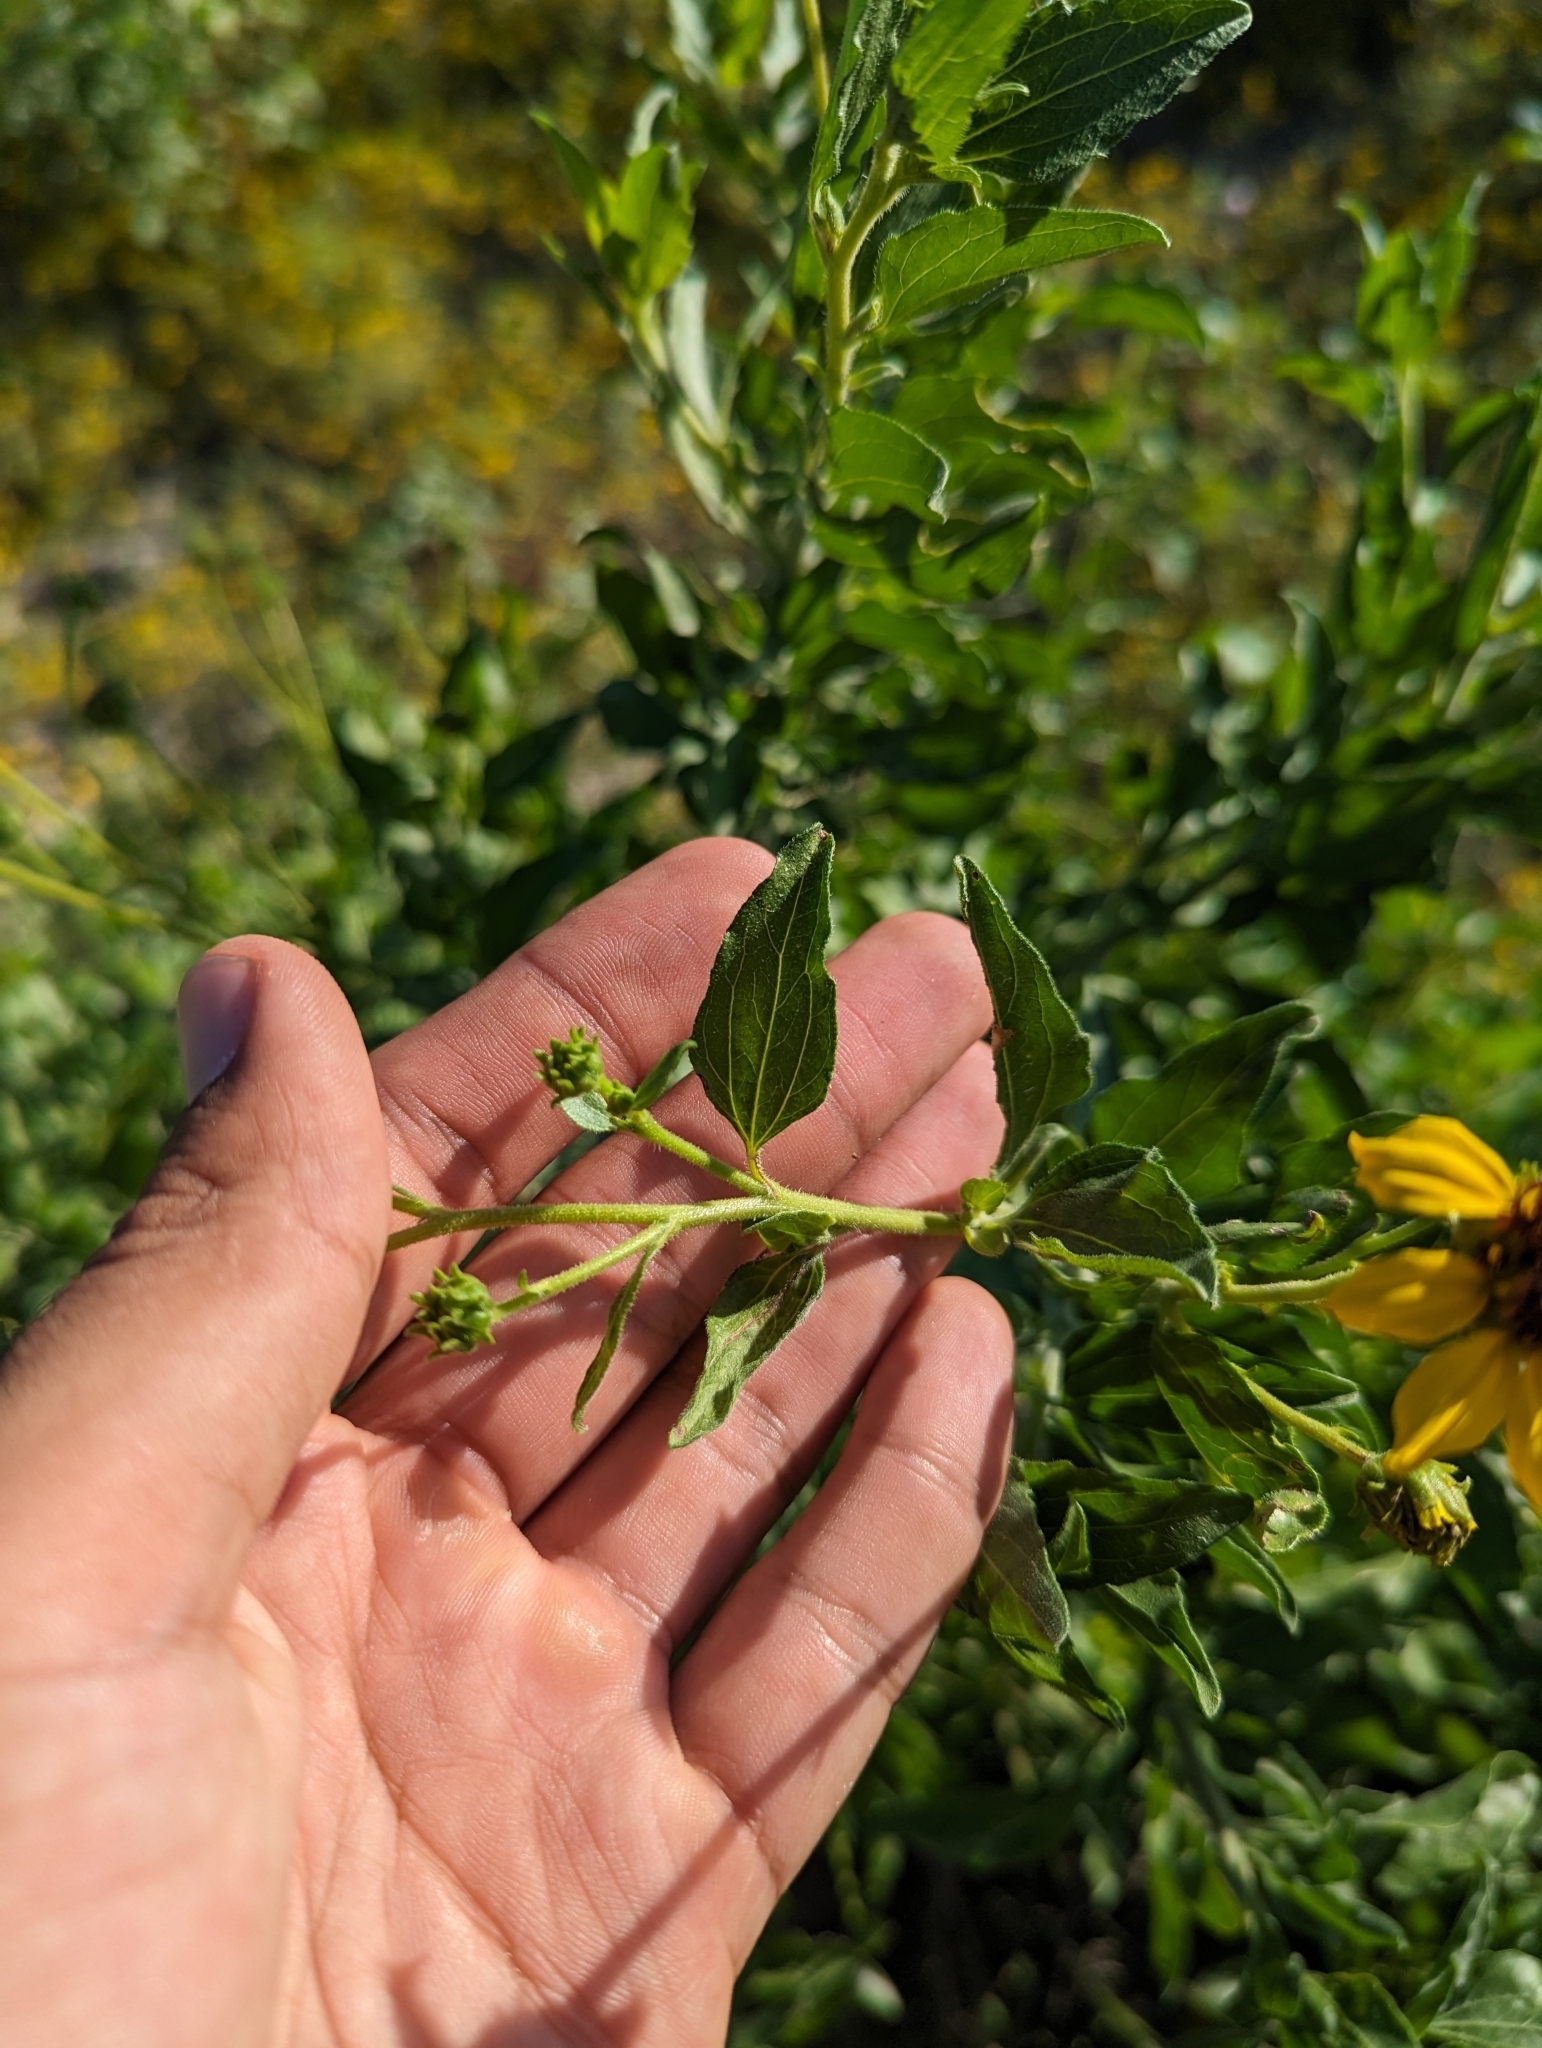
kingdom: Plantae
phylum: Tracheophyta
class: Magnoliopsida
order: Asterales
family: Asteraceae
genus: Encelia
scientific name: Encelia palmeri
